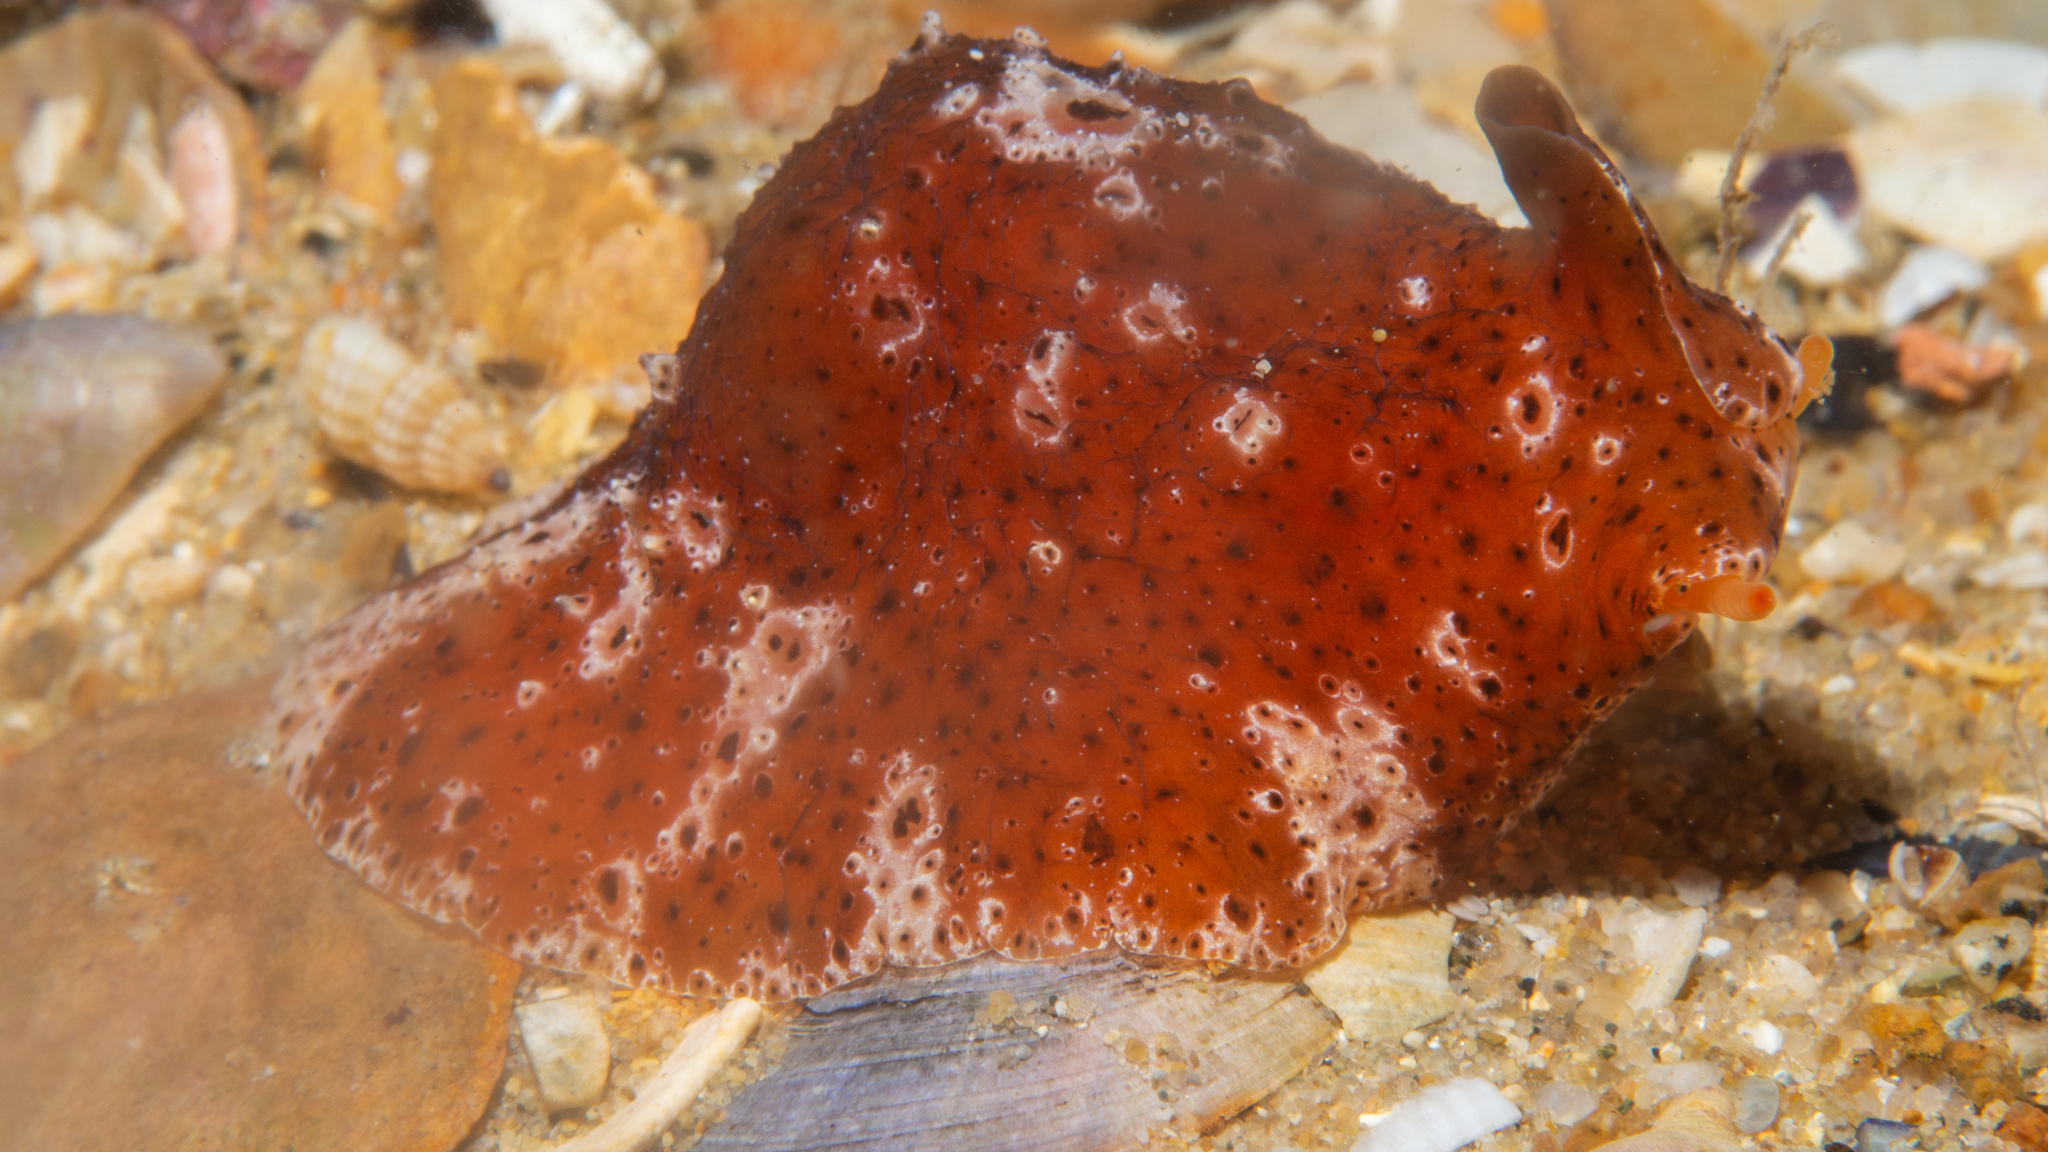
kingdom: Animalia
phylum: Mollusca
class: Gastropoda
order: Littorinimorpha
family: Velutinidae
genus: Djiboutia
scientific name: Djiboutia australis
